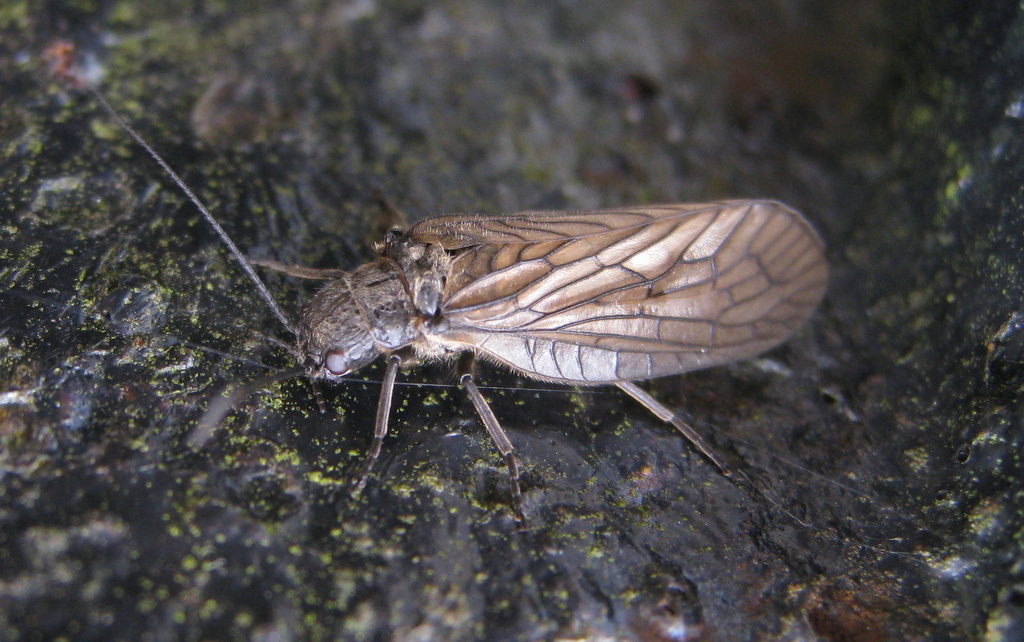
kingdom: Animalia
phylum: Arthropoda
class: Insecta
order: Megaloptera
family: Sialidae
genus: Sialis
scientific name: Sialis
